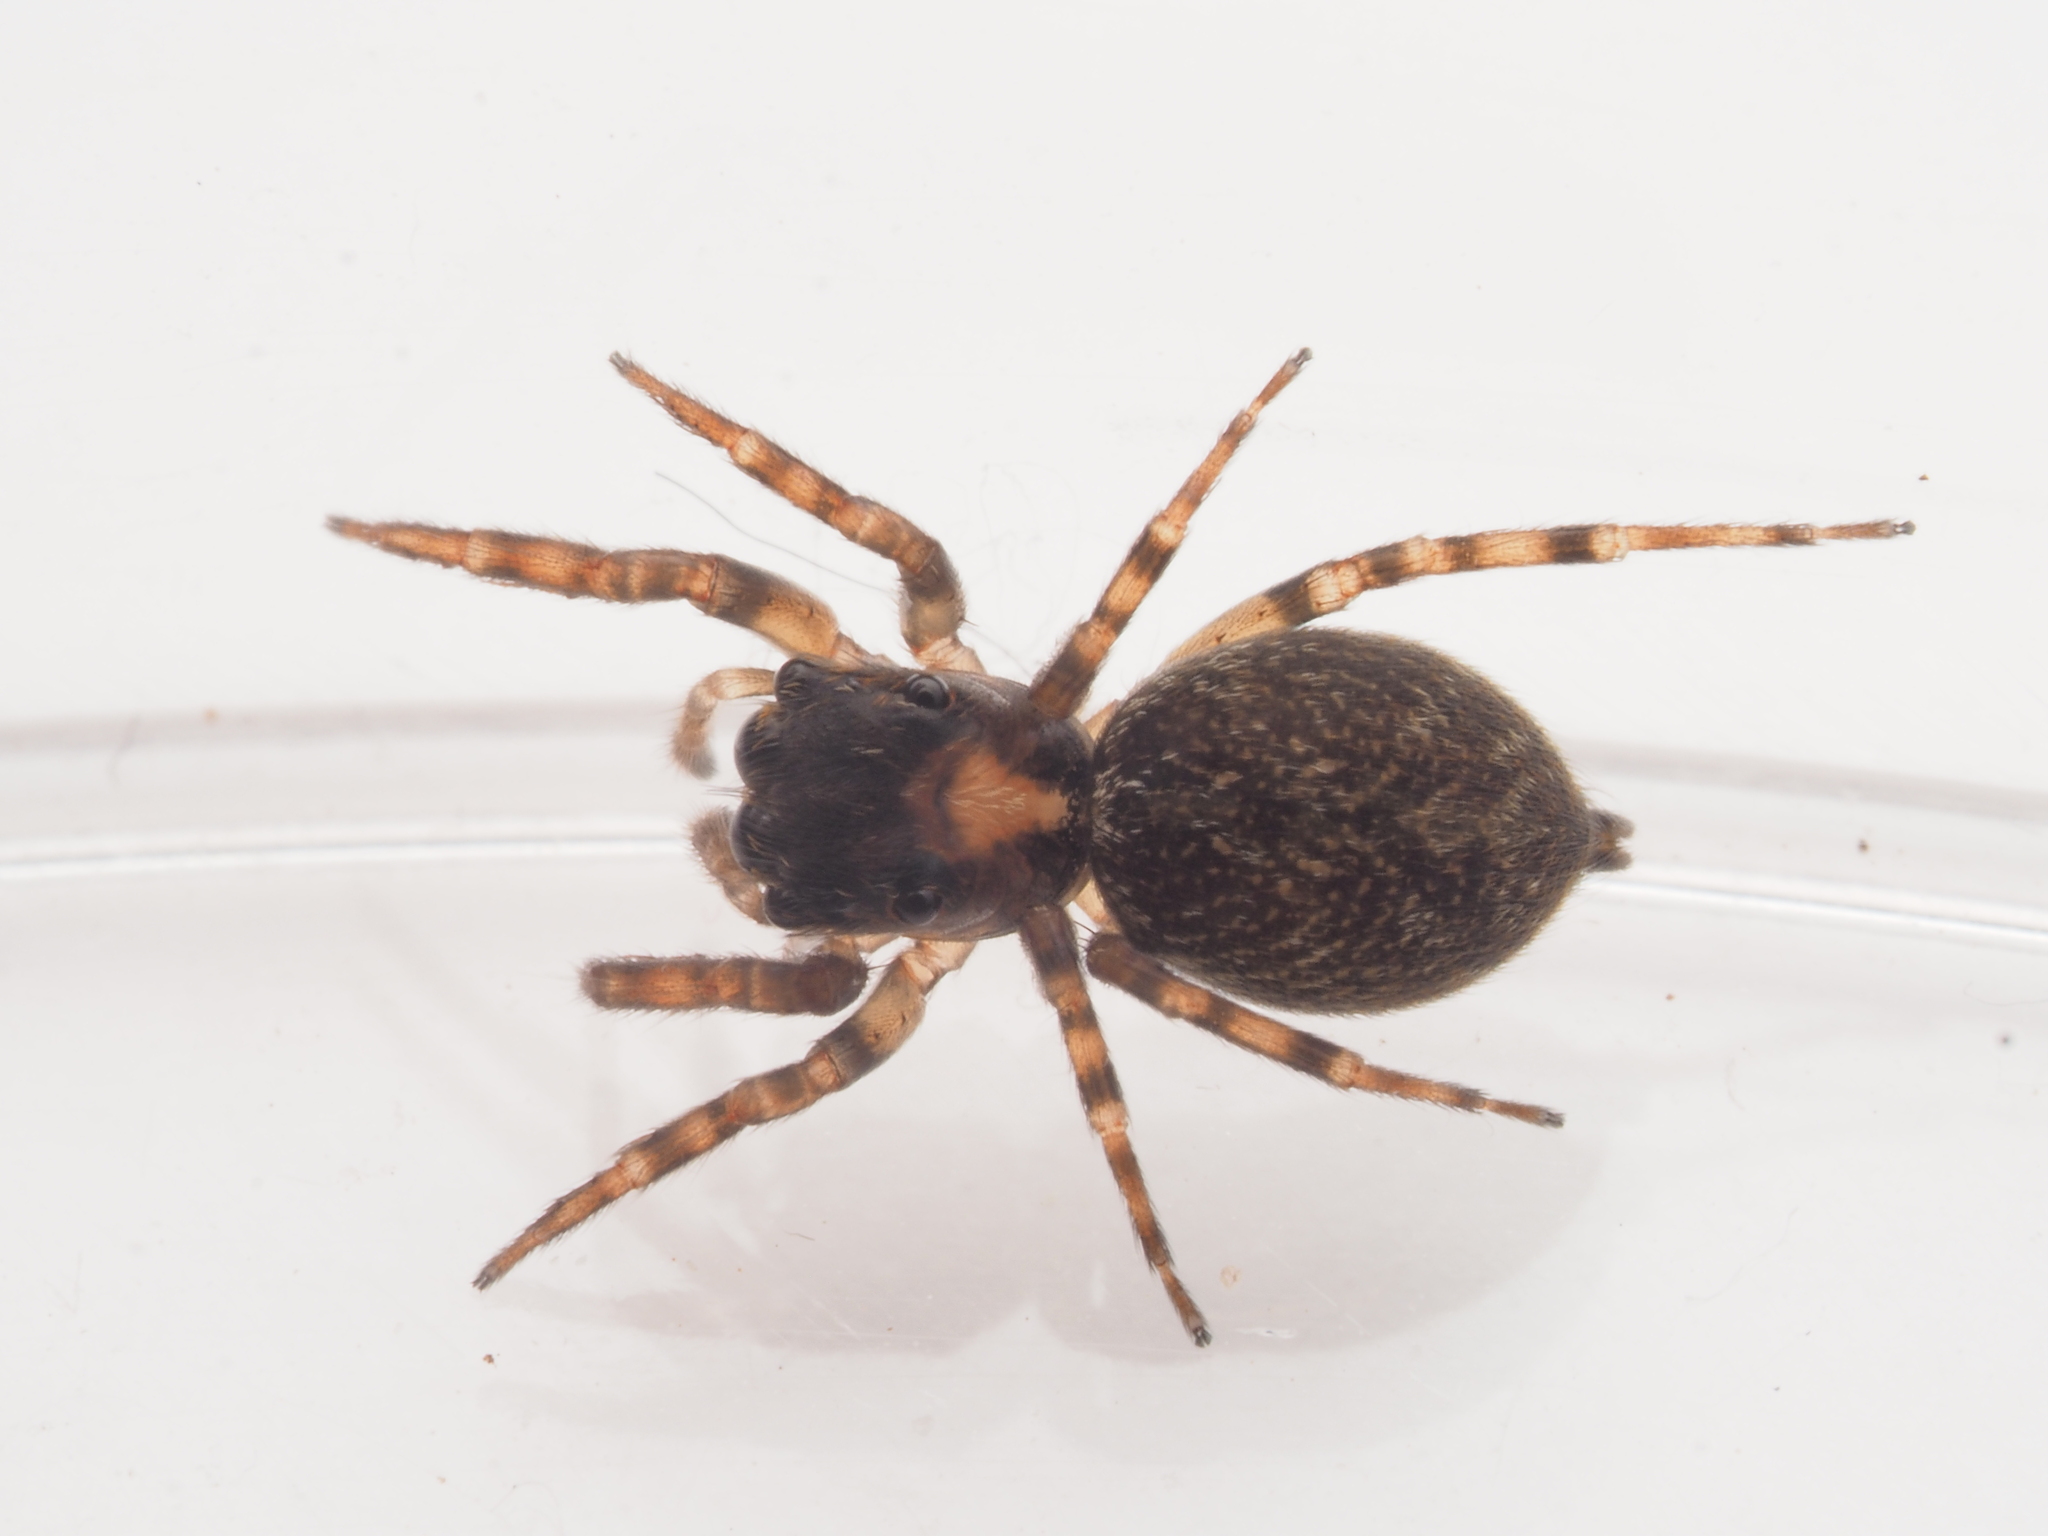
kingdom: Animalia
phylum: Arthropoda
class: Arachnida
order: Araneae
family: Salticidae
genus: Sondra
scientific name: Sondra nepenthicola
